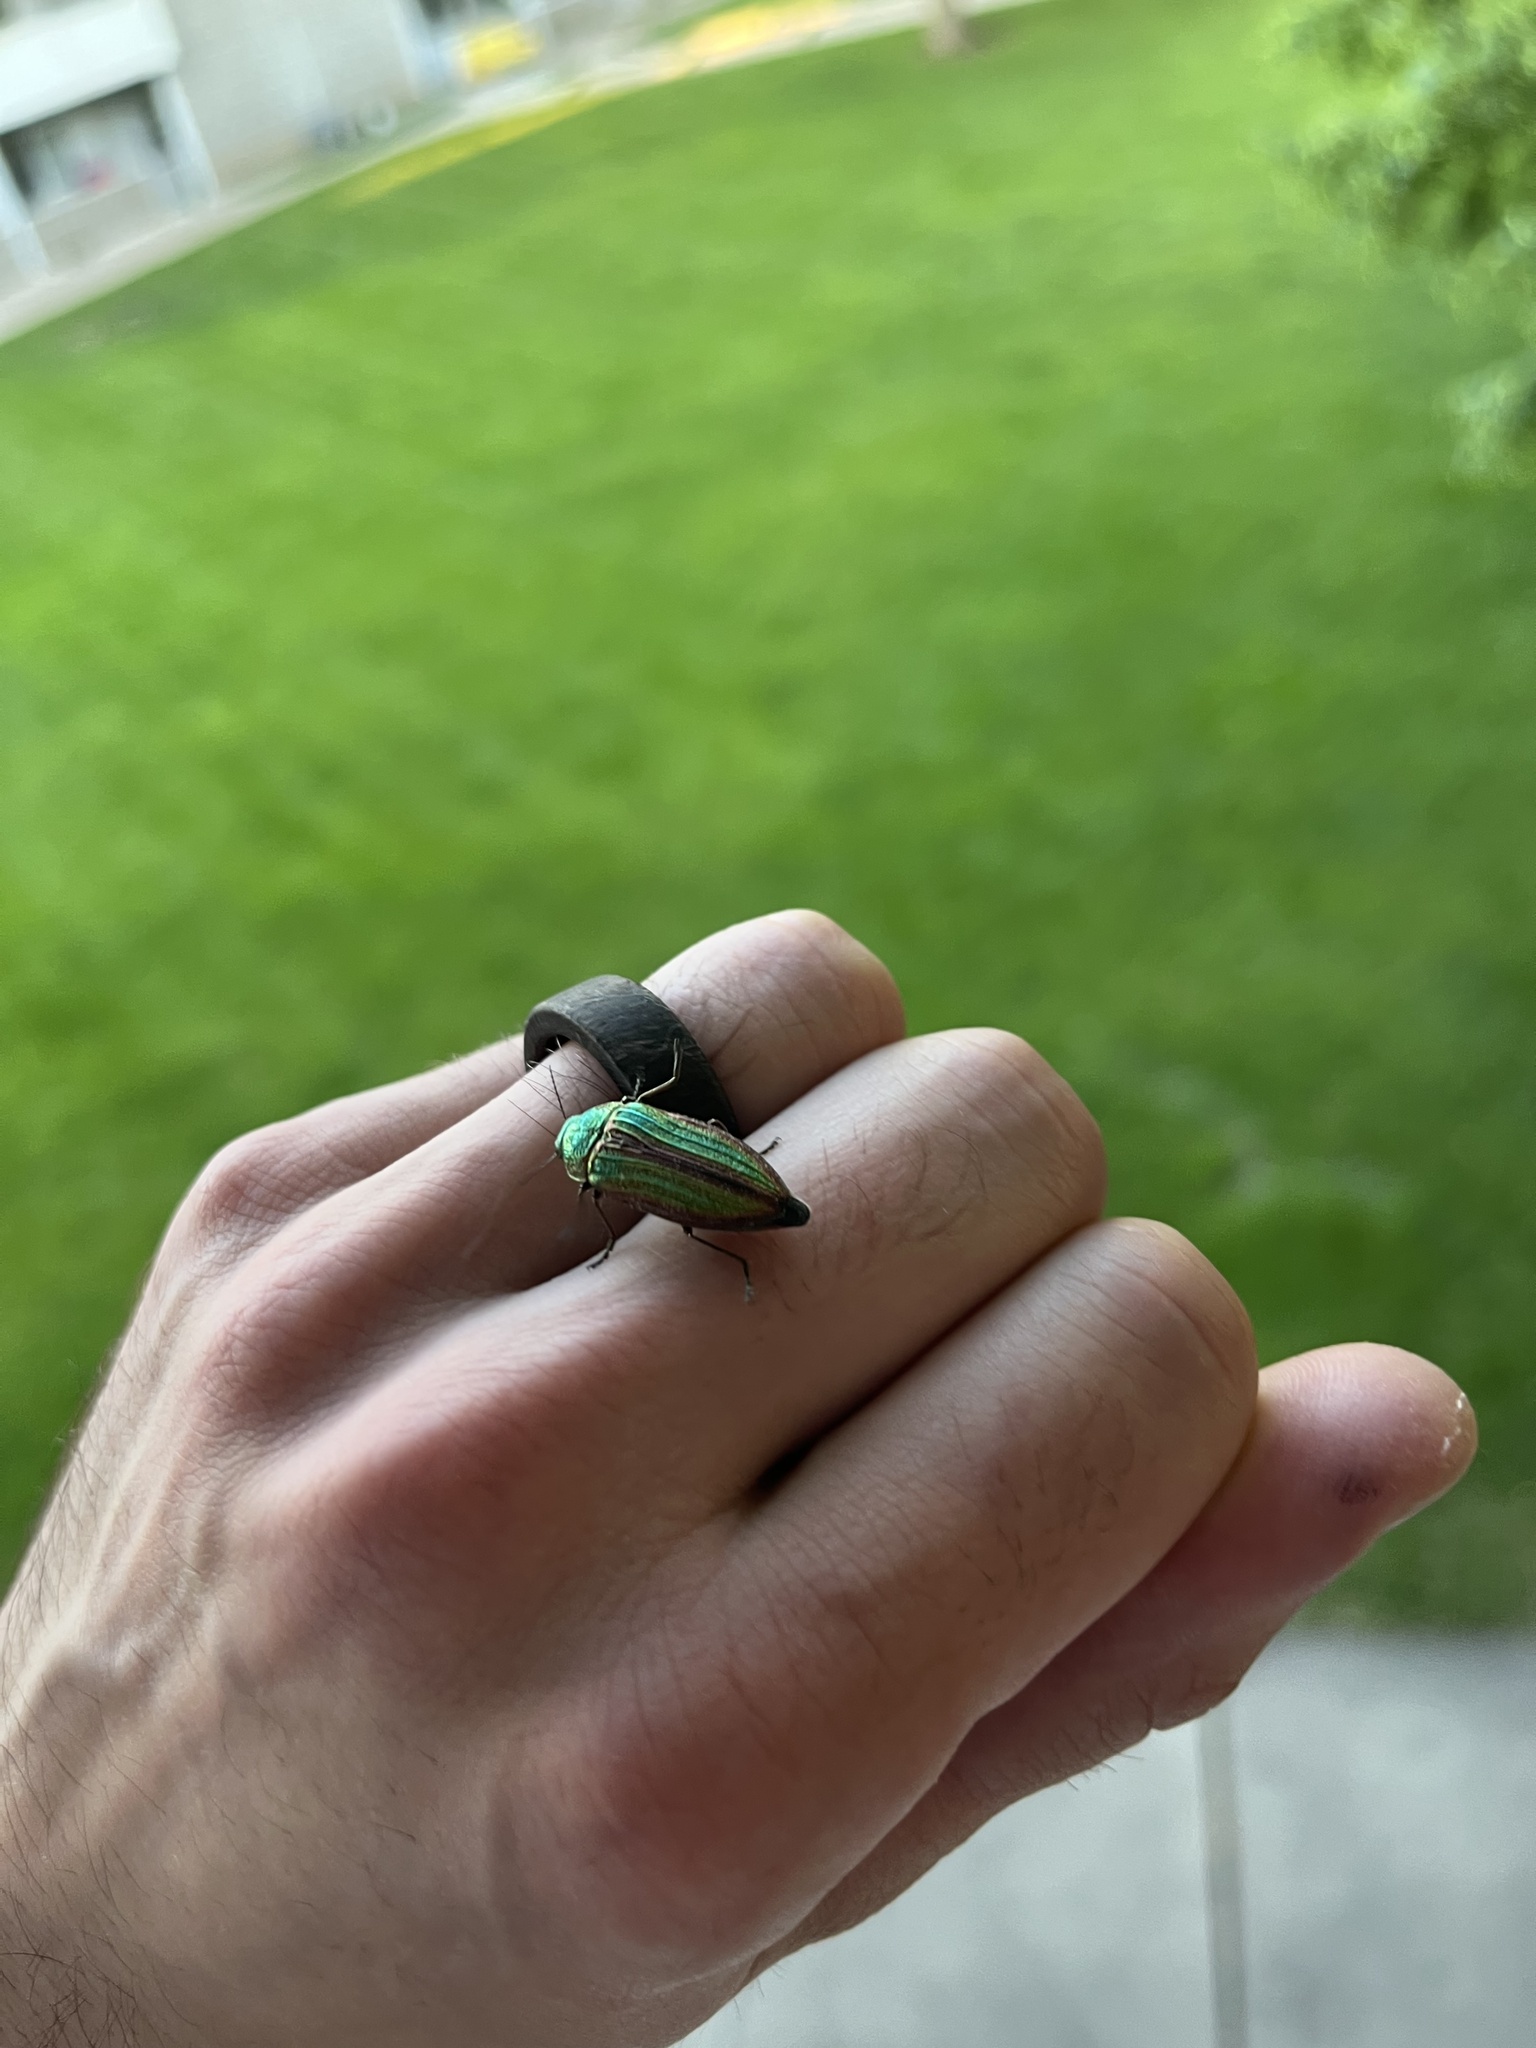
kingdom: Animalia
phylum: Arthropoda
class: Insecta
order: Coleoptera
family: Buprestidae
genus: Buprestis
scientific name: Buprestis aurulenta
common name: Golden buprestid
